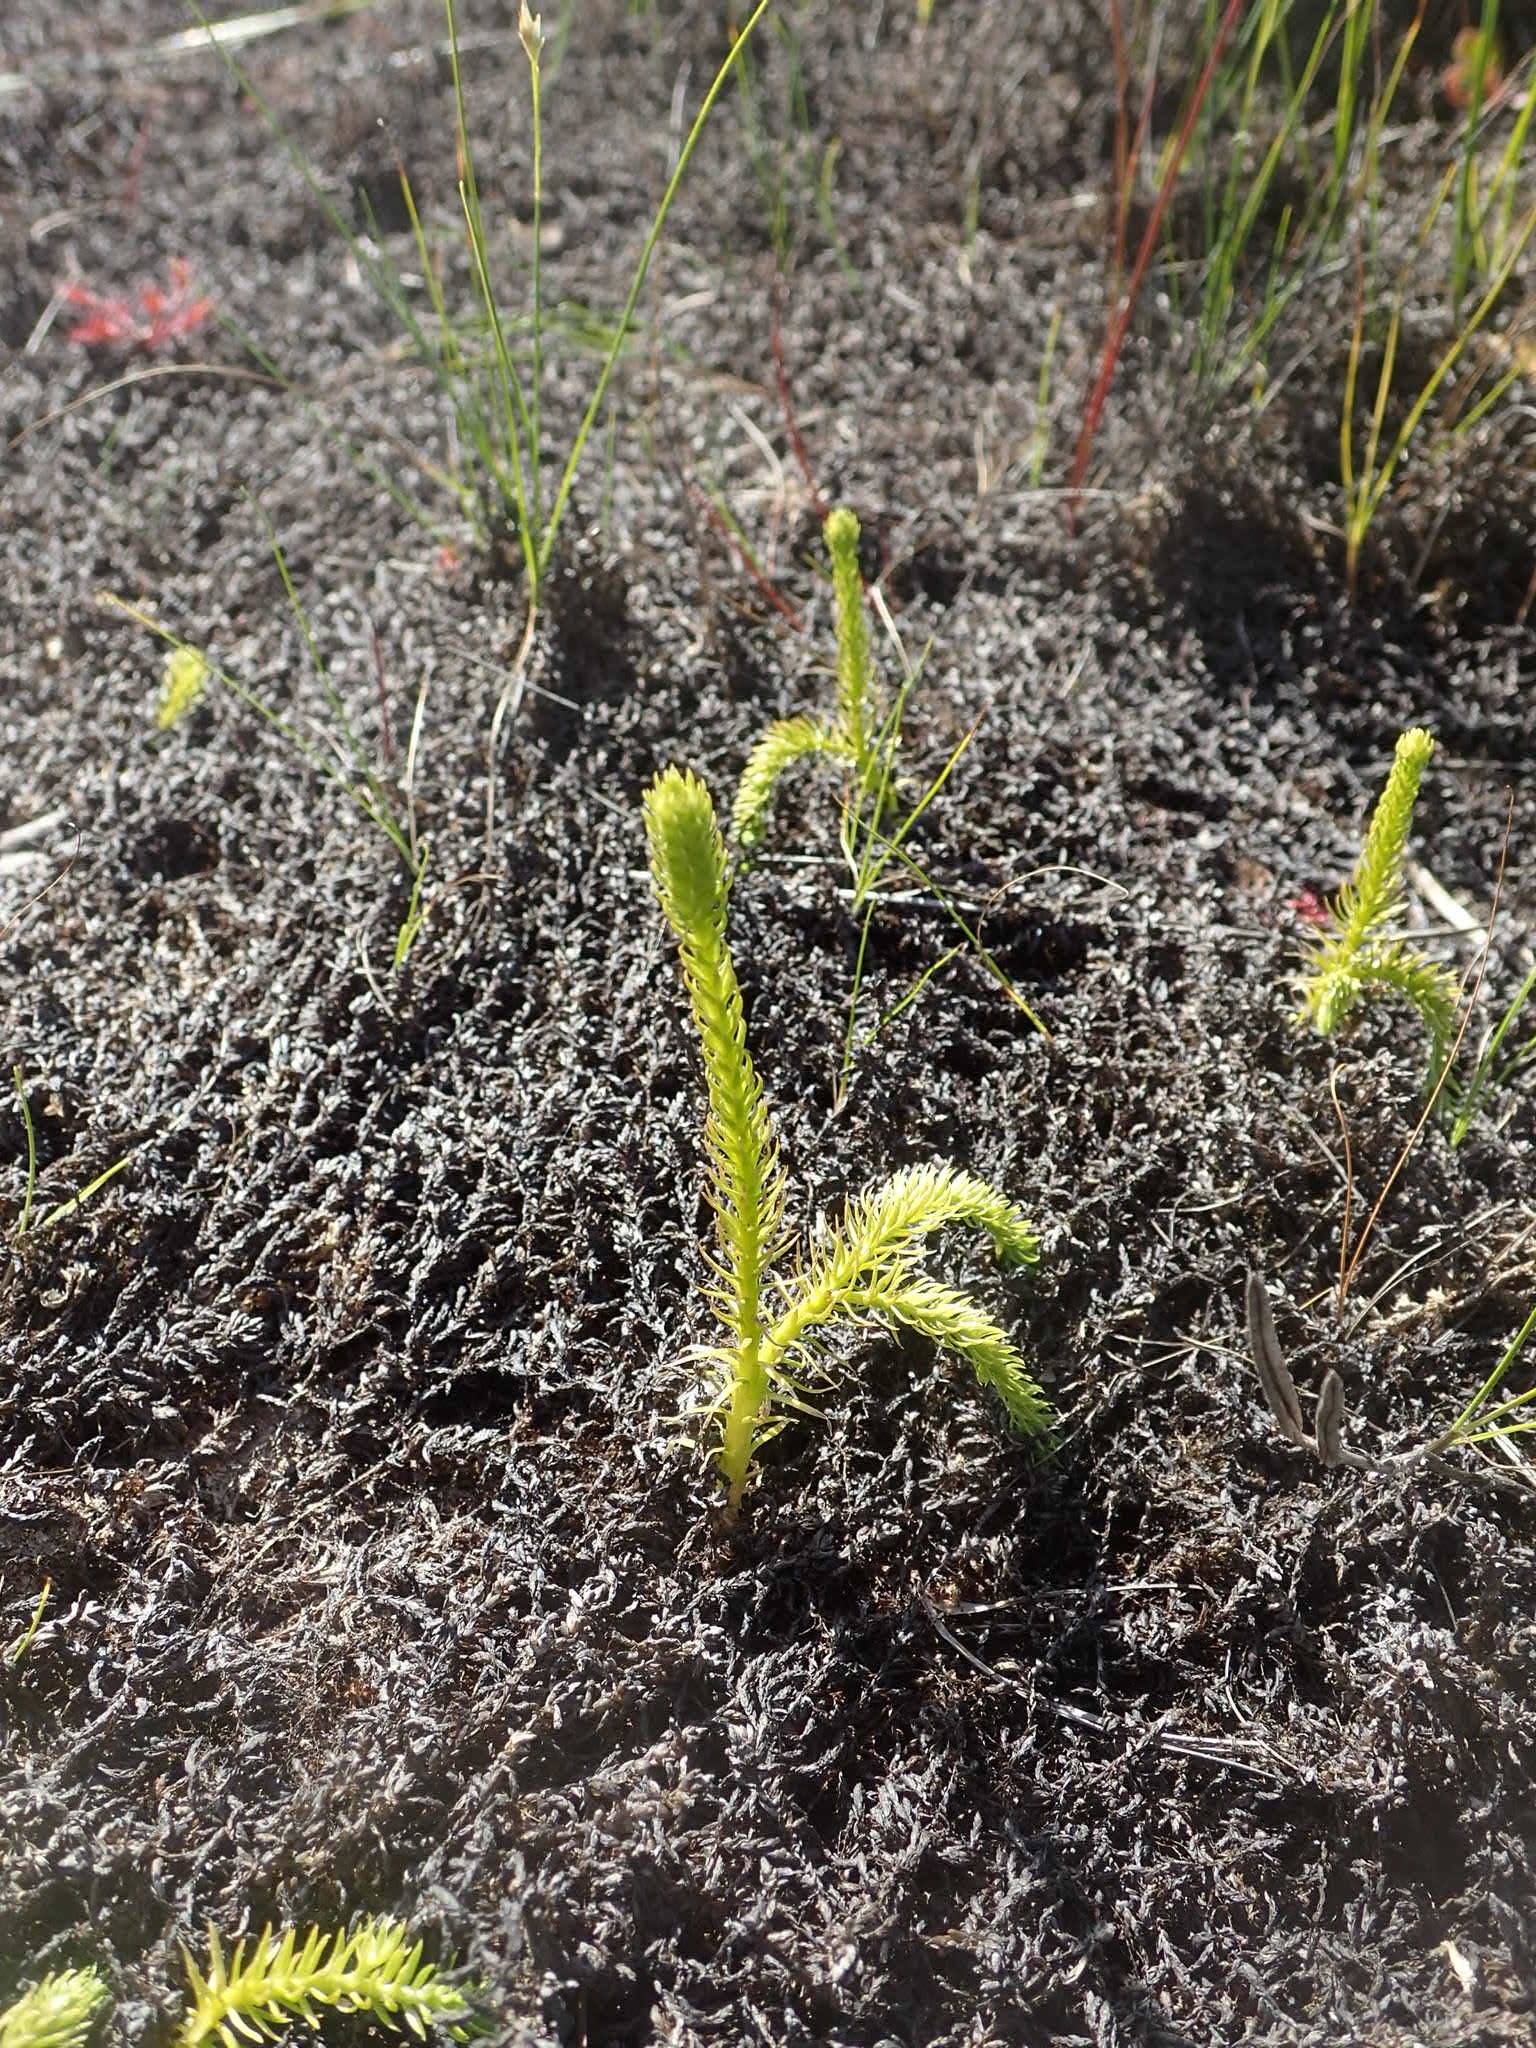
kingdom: Plantae
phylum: Tracheophyta
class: Lycopodiopsida
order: Lycopodiales
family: Lycopodiaceae
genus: Lycopodiella
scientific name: Lycopodiella inundata
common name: Marsh clubmoss
